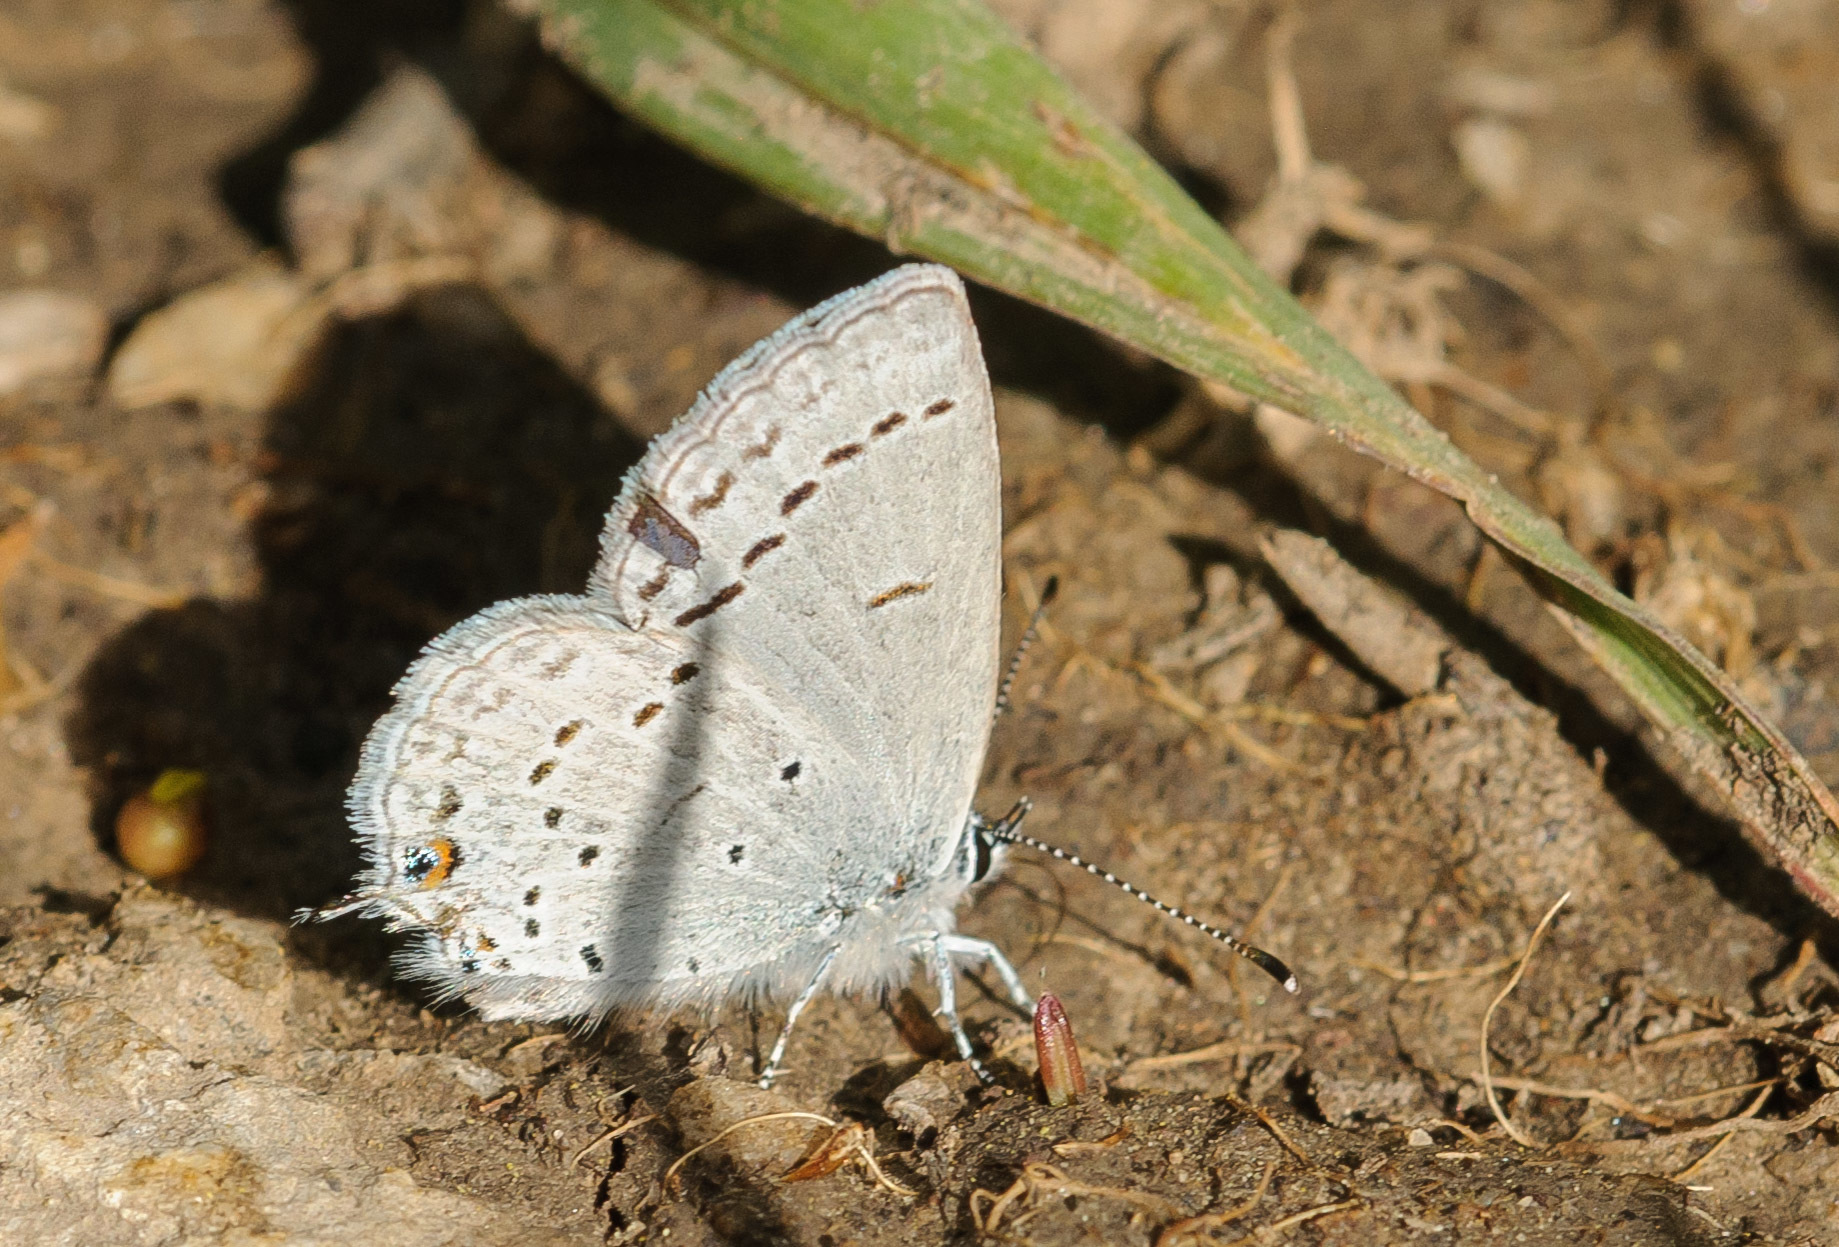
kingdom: Animalia
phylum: Arthropoda
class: Insecta
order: Lepidoptera
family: Lycaenidae
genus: Elkalyce
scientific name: Elkalyce amyntula
